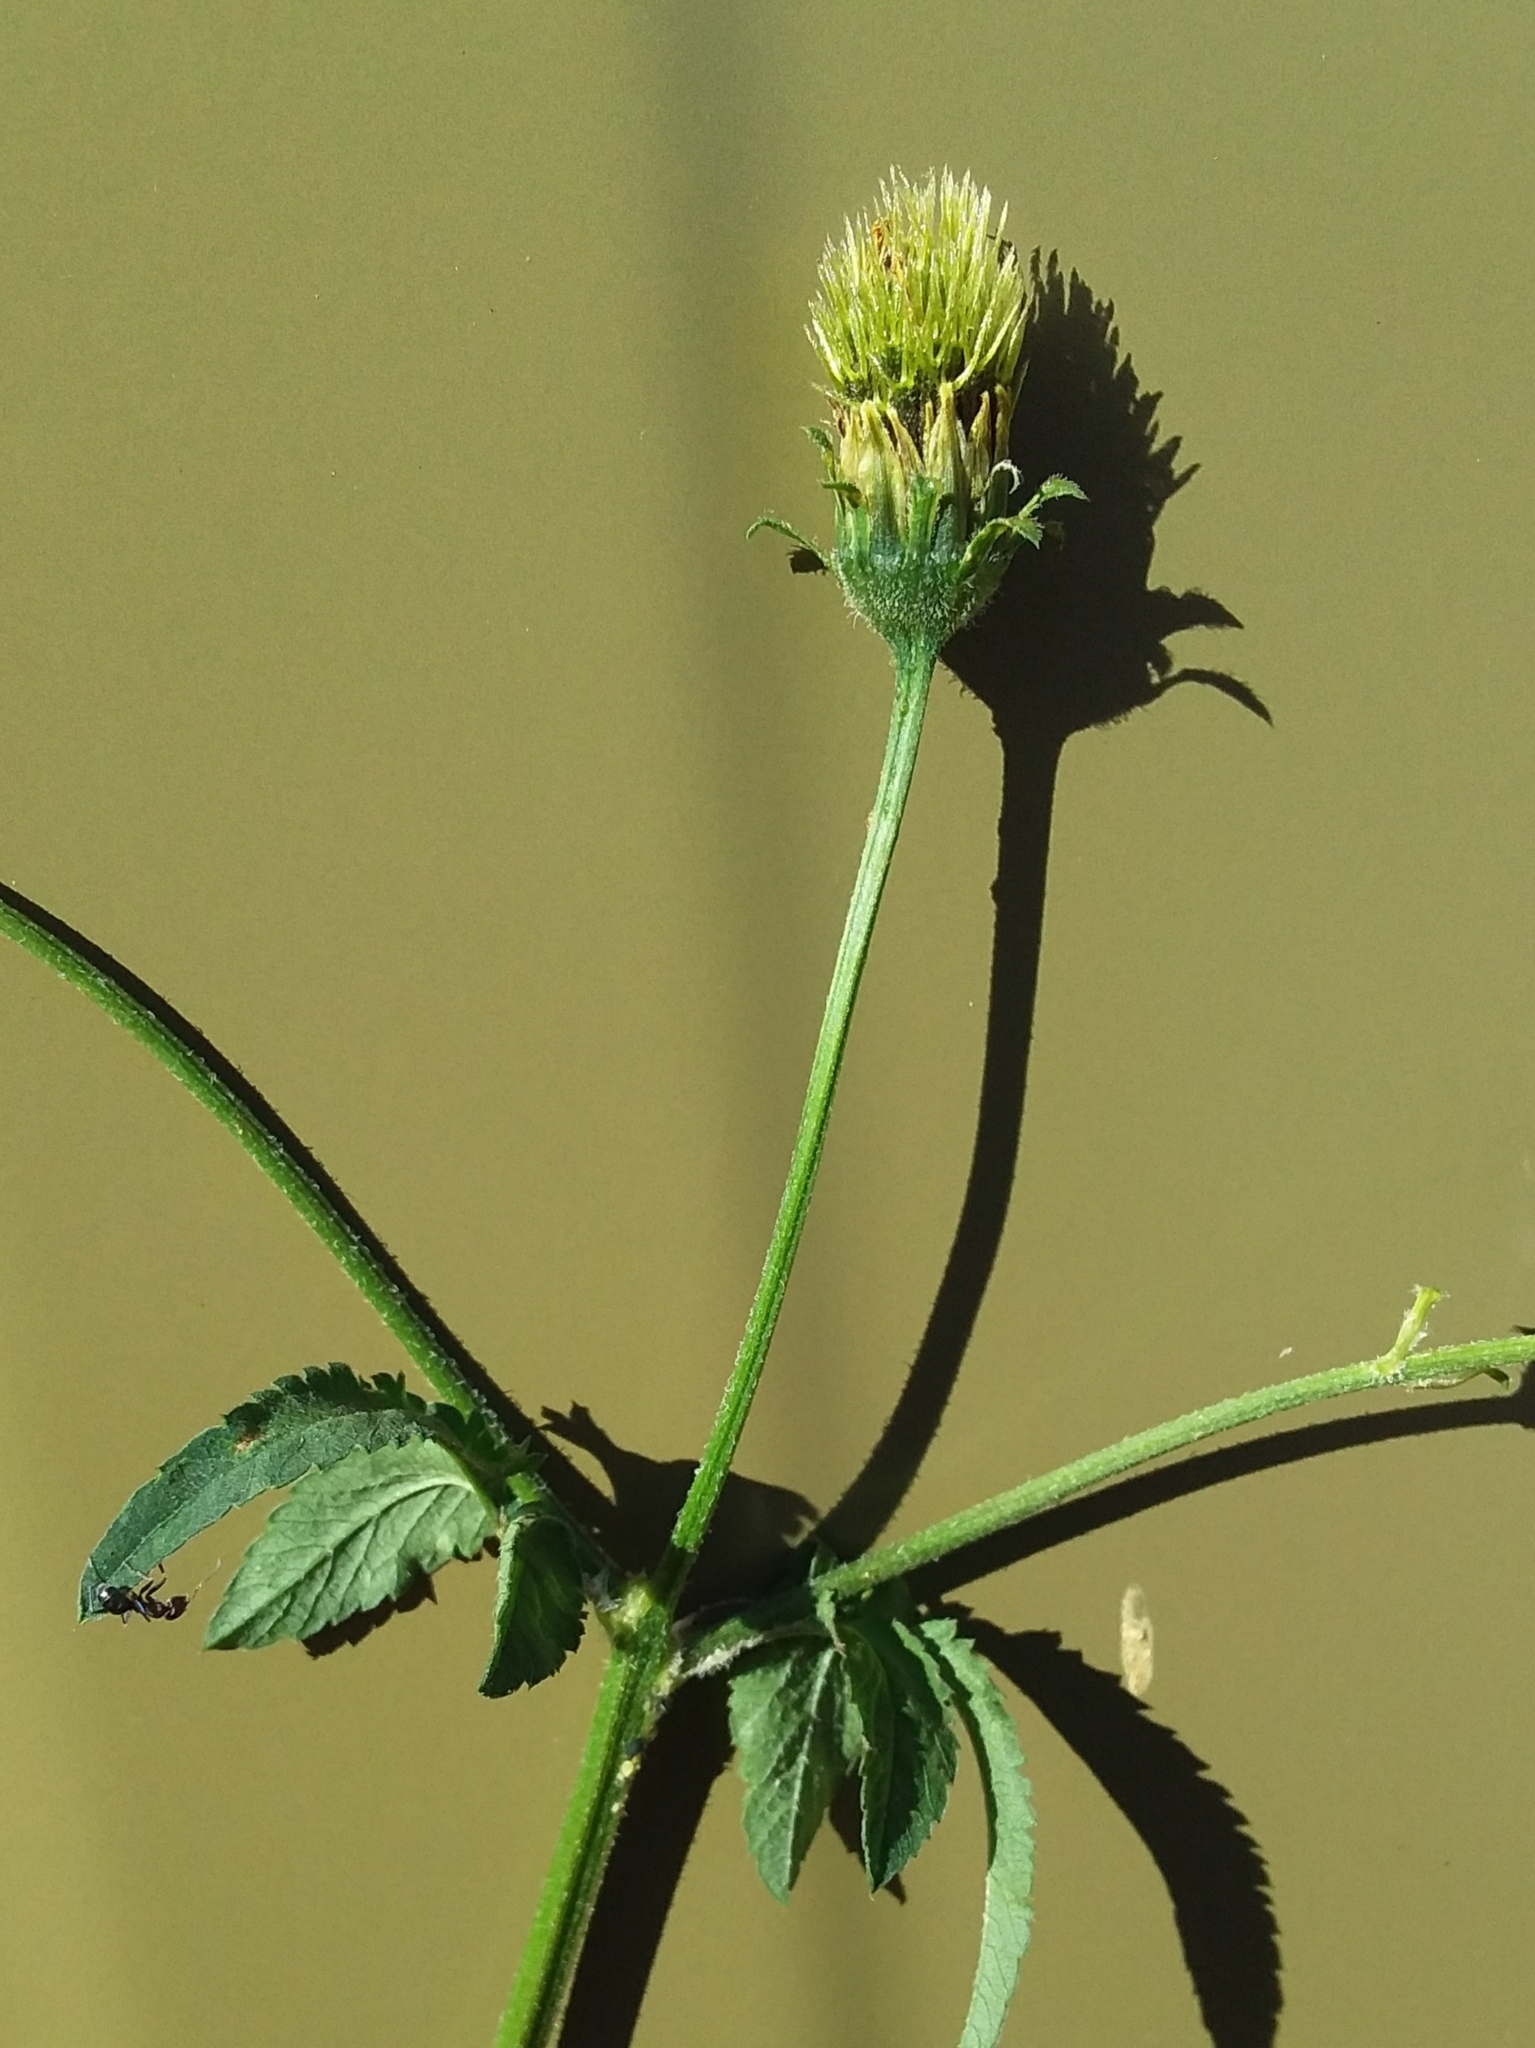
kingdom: Plantae
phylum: Tracheophyta
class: Magnoliopsida
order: Asterales
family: Asteraceae
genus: Bidens
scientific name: Bidens pilosa
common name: Black-jack
